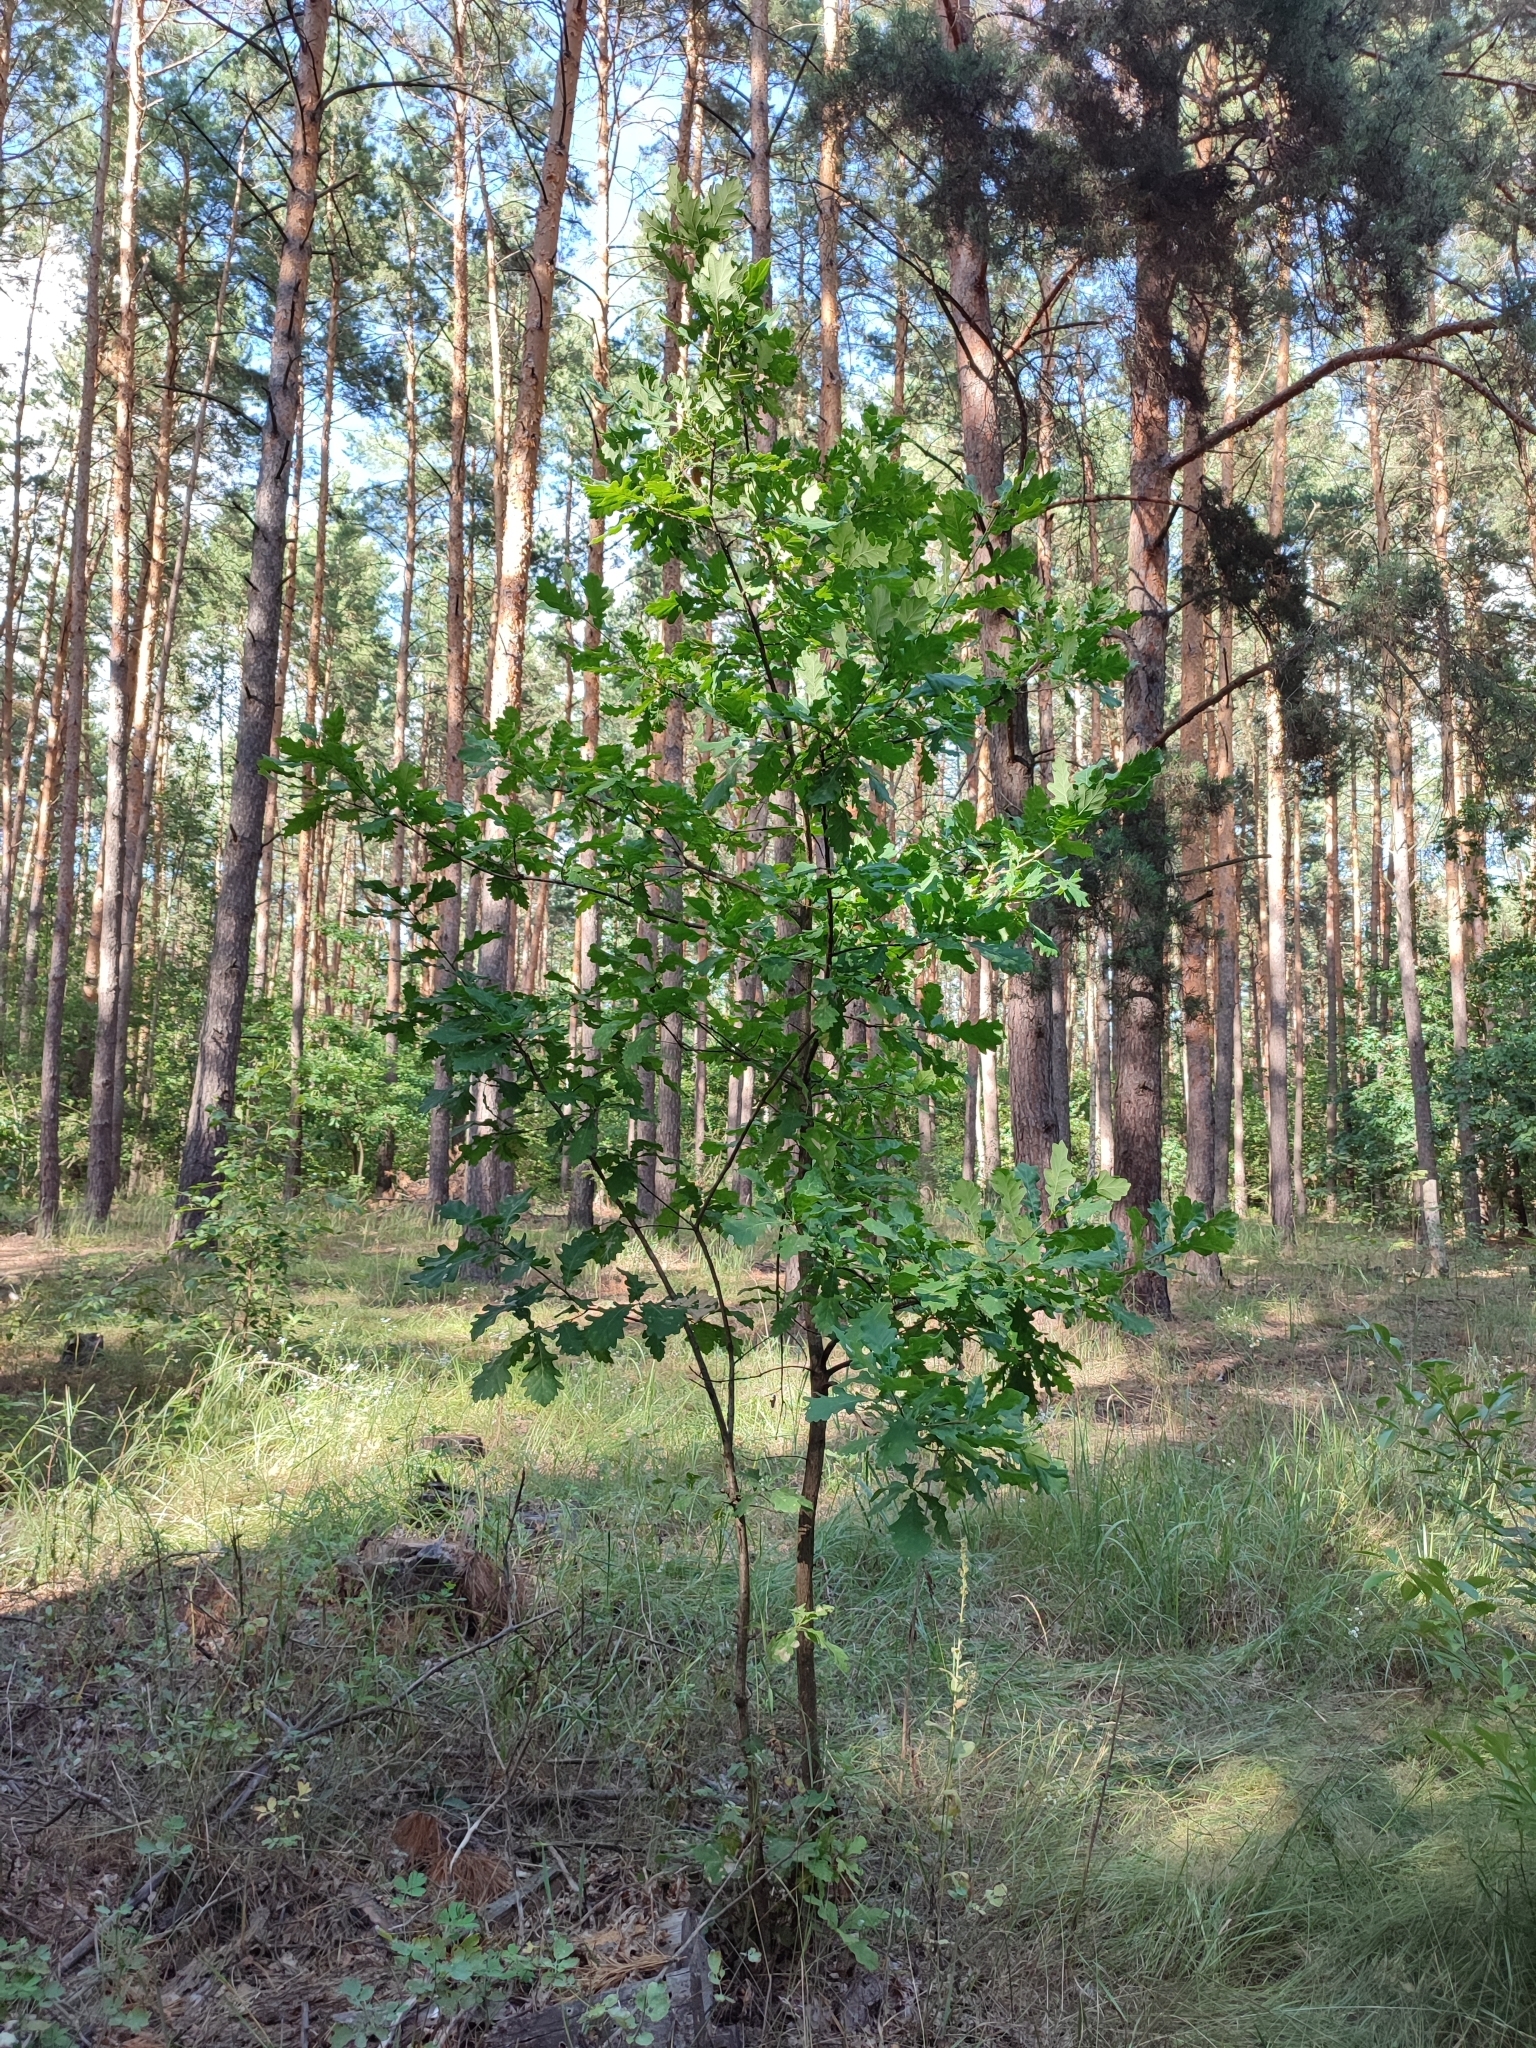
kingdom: Plantae
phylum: Tracheophyta
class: Magnoliopsida
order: Fagales
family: Fagaceae
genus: Quercus
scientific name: Quercus robur
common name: Pedunculate oak
